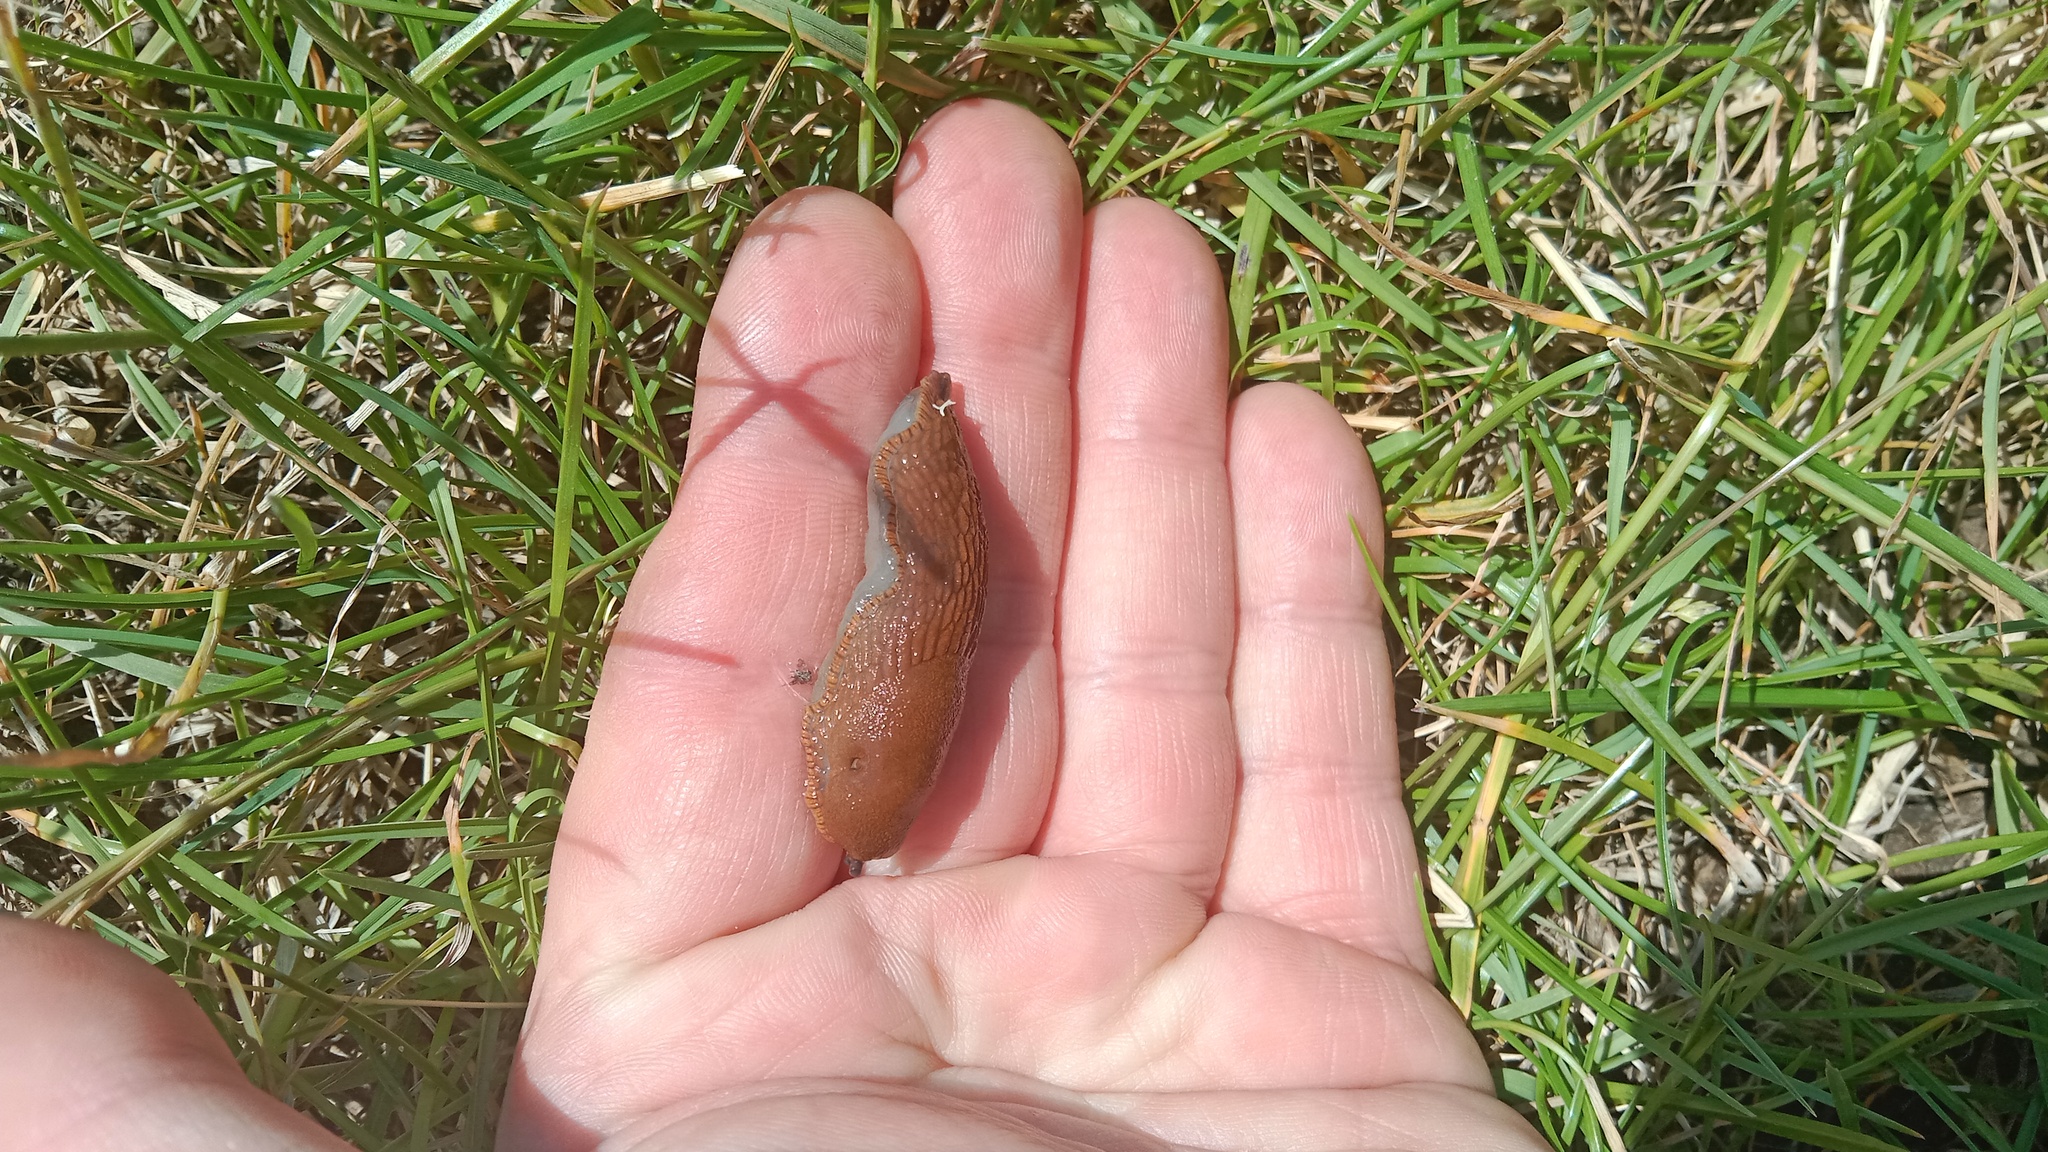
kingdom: Animalia
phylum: Mollusca
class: Gastropoda
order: Stylommatophora
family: Arionidae
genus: Arion
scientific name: Arion vulgaris
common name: Lusitanian slug
